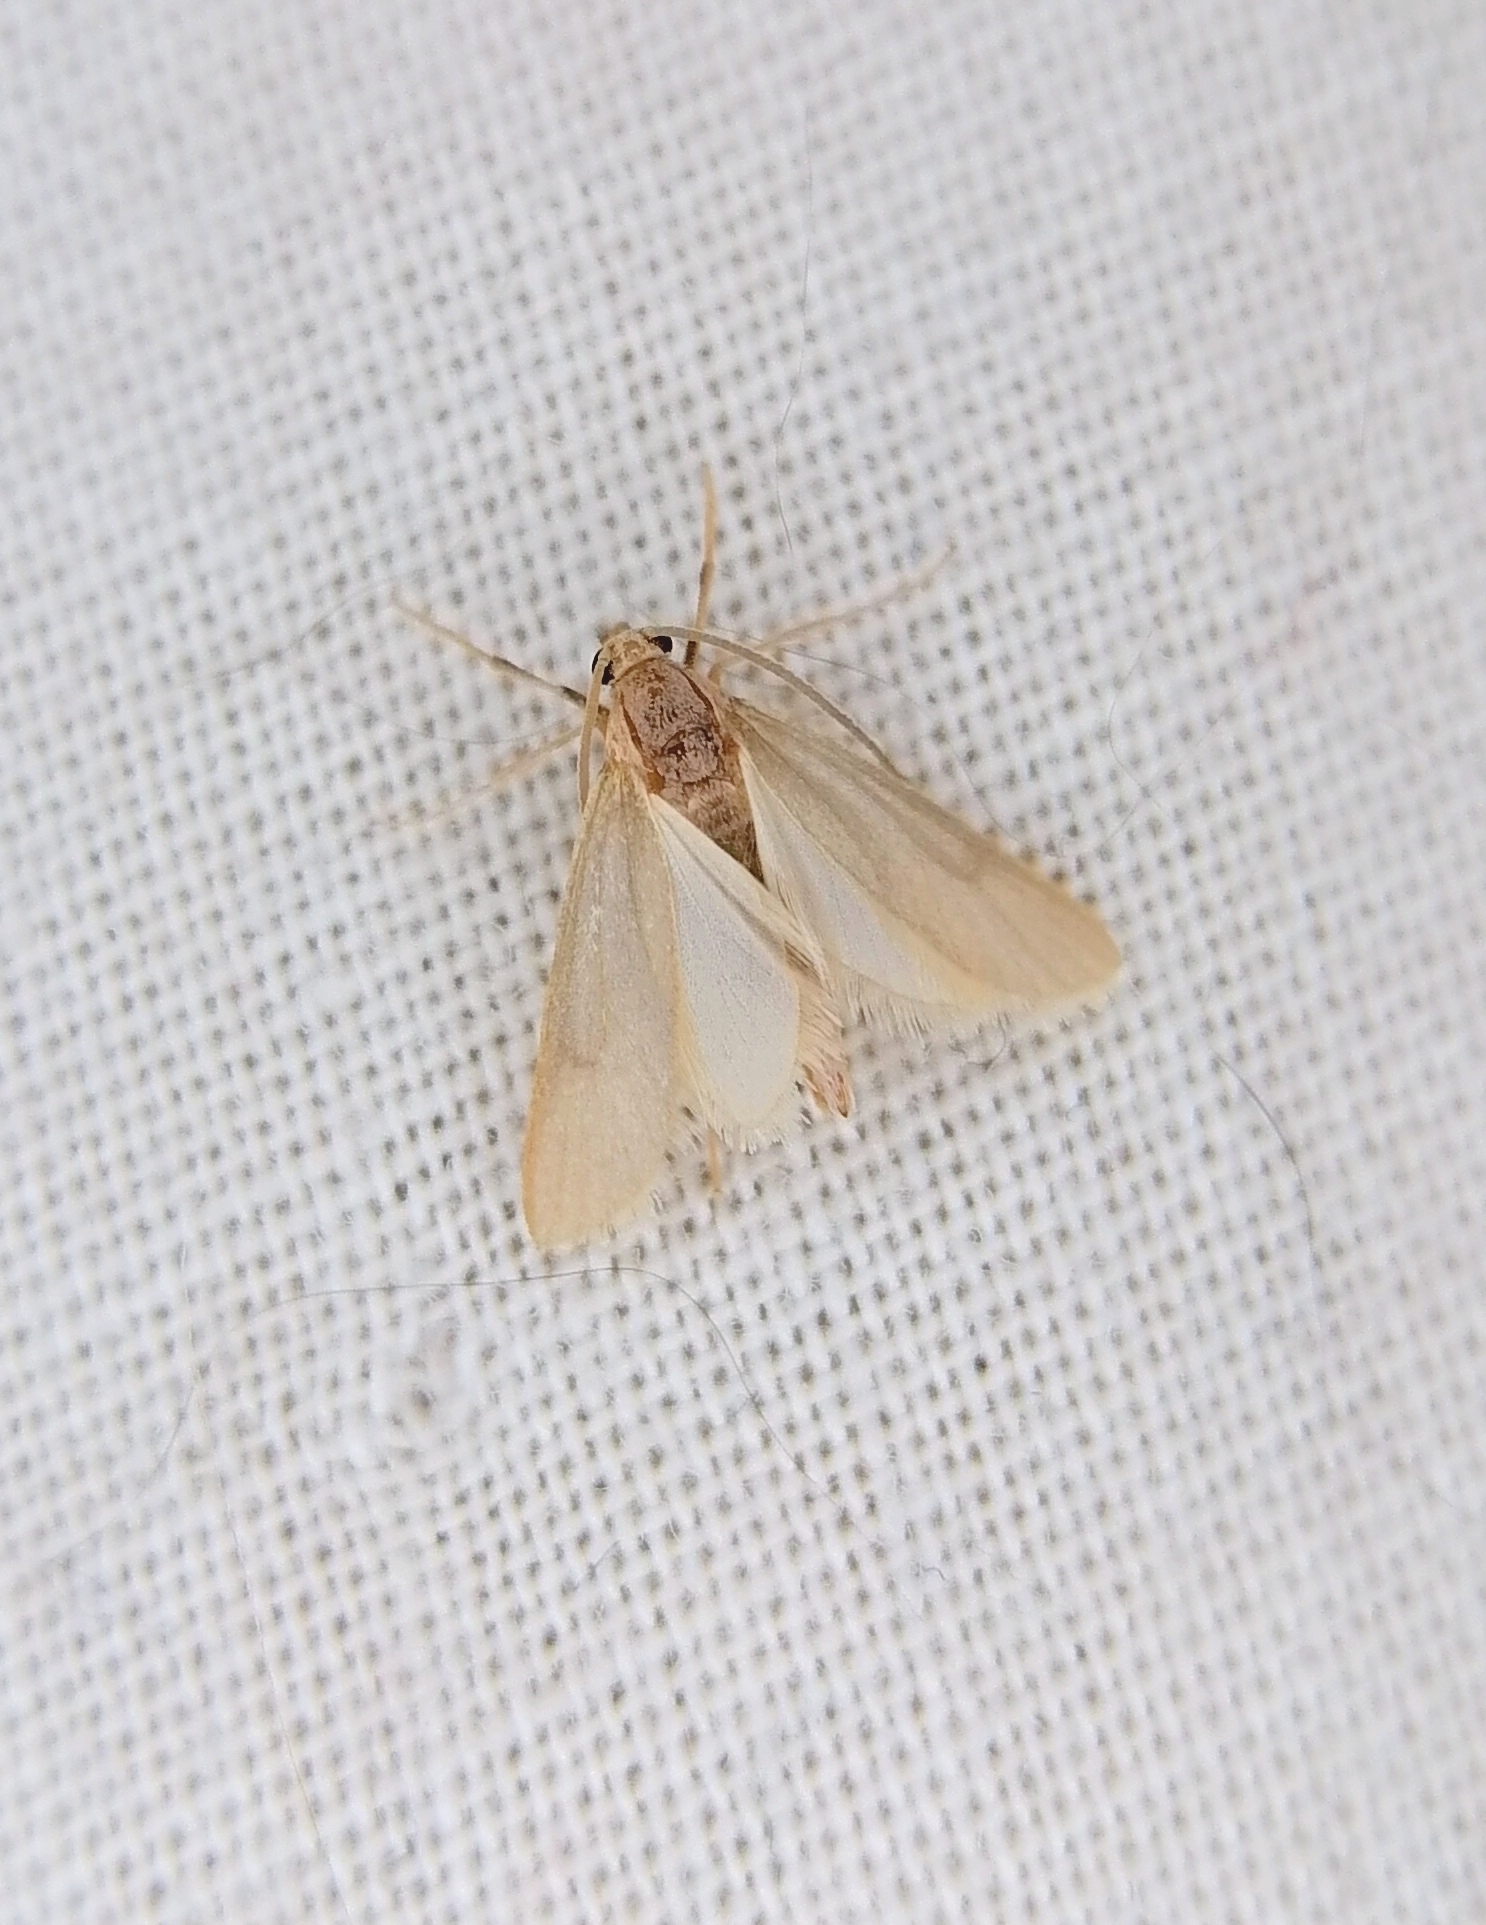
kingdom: Animalia
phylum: Arthropoda
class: Insecta
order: Lepidoptera
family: Crambidae
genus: Acentria
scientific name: Acentria ephemerella
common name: European water moth
